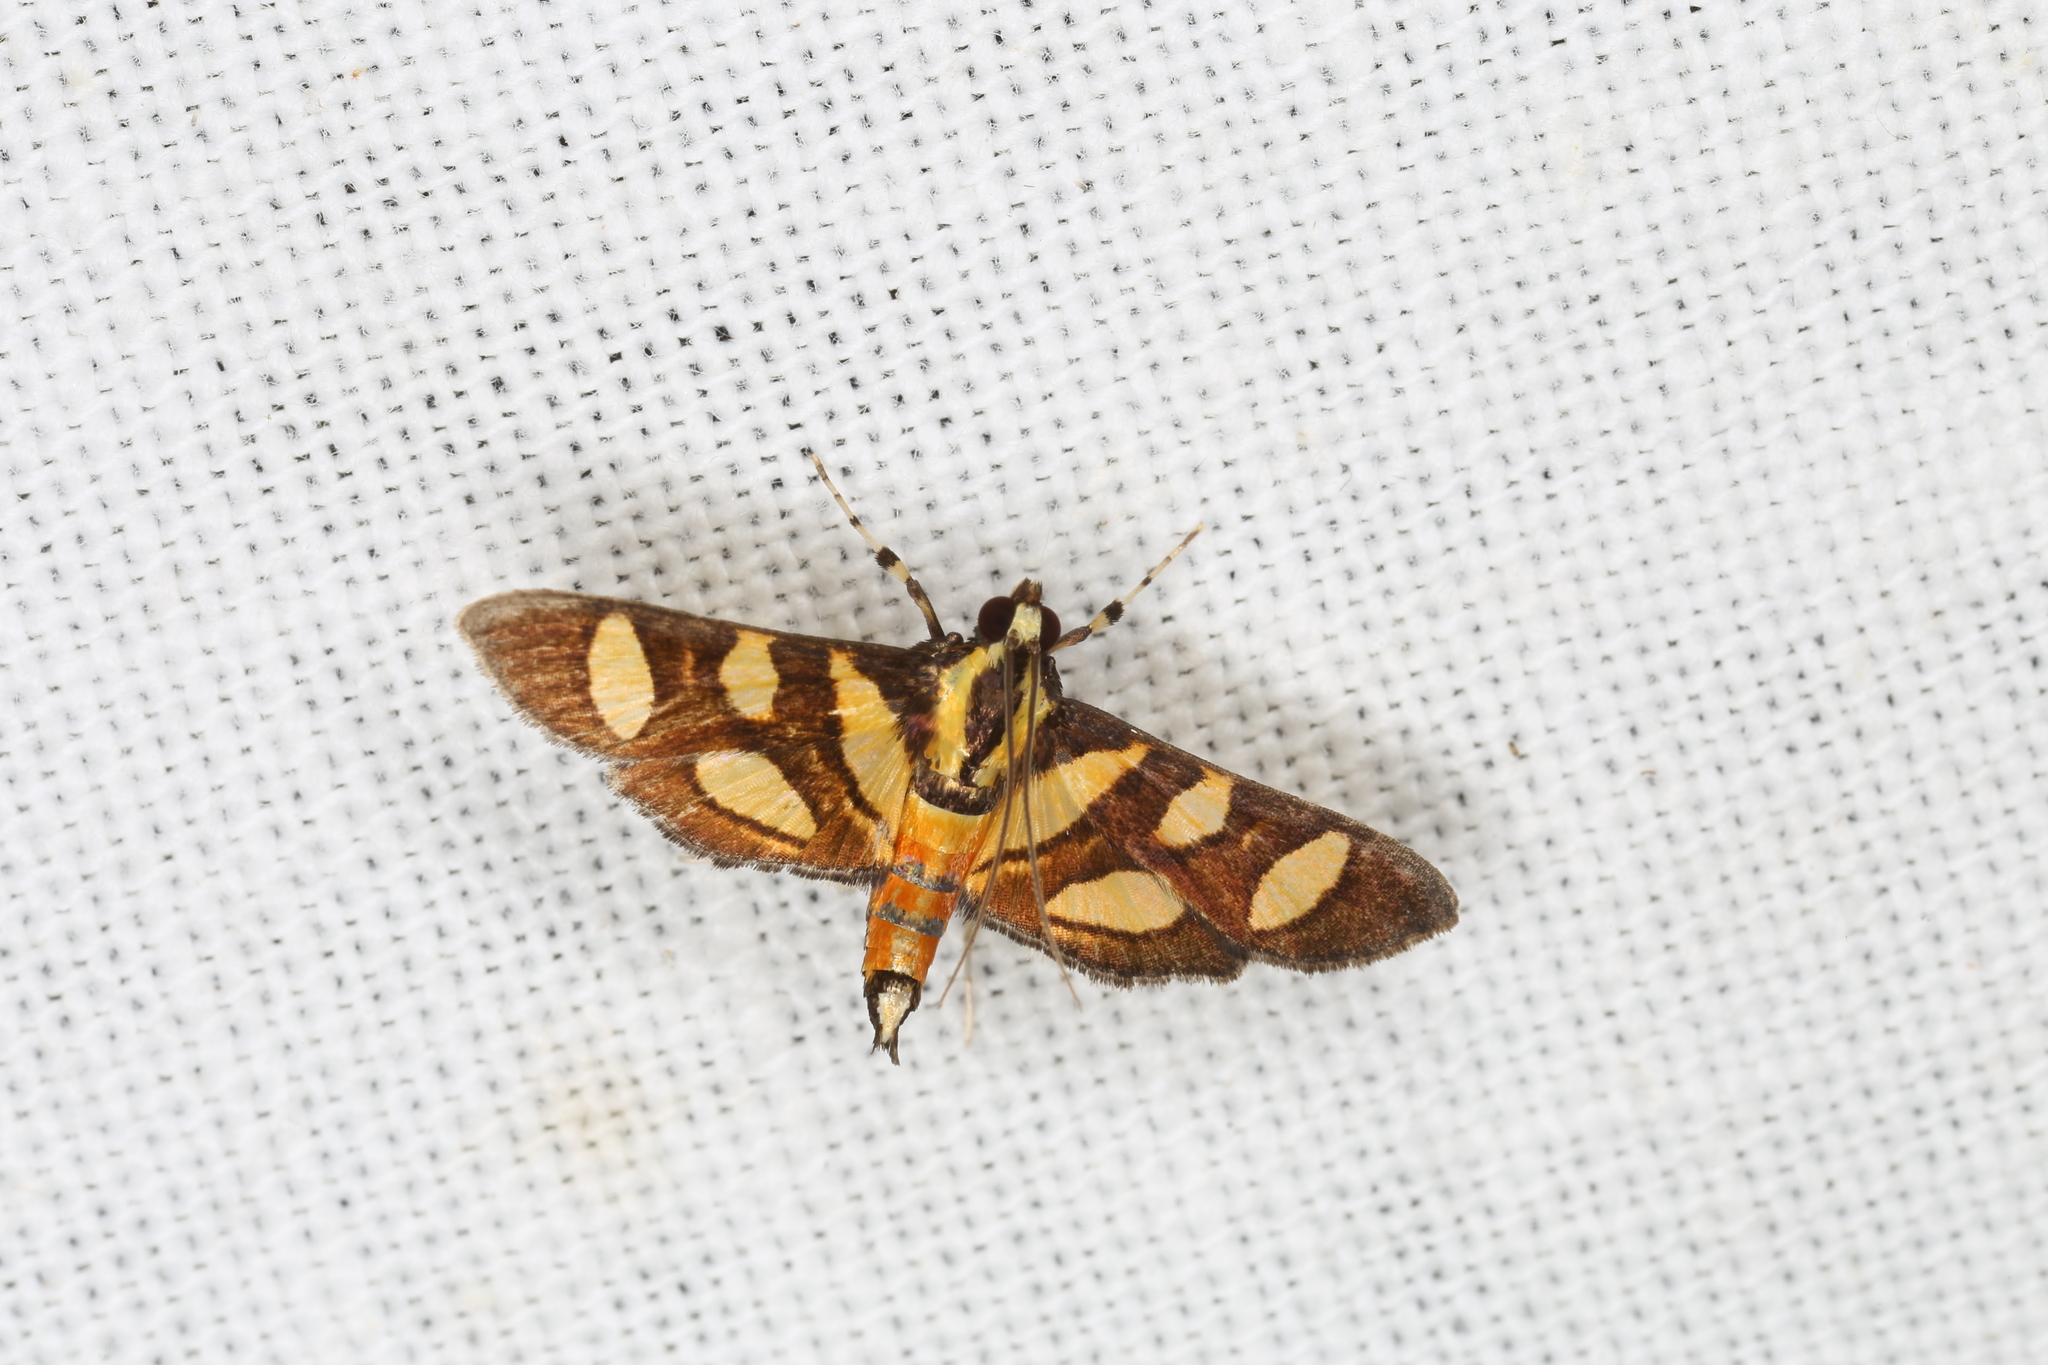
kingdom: Animalia
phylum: Arthropoda
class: Insecta
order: Lepidoptera
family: Crambidae
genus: Syngamia
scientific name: Syngamia florella
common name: Orange-spotted flower moth
